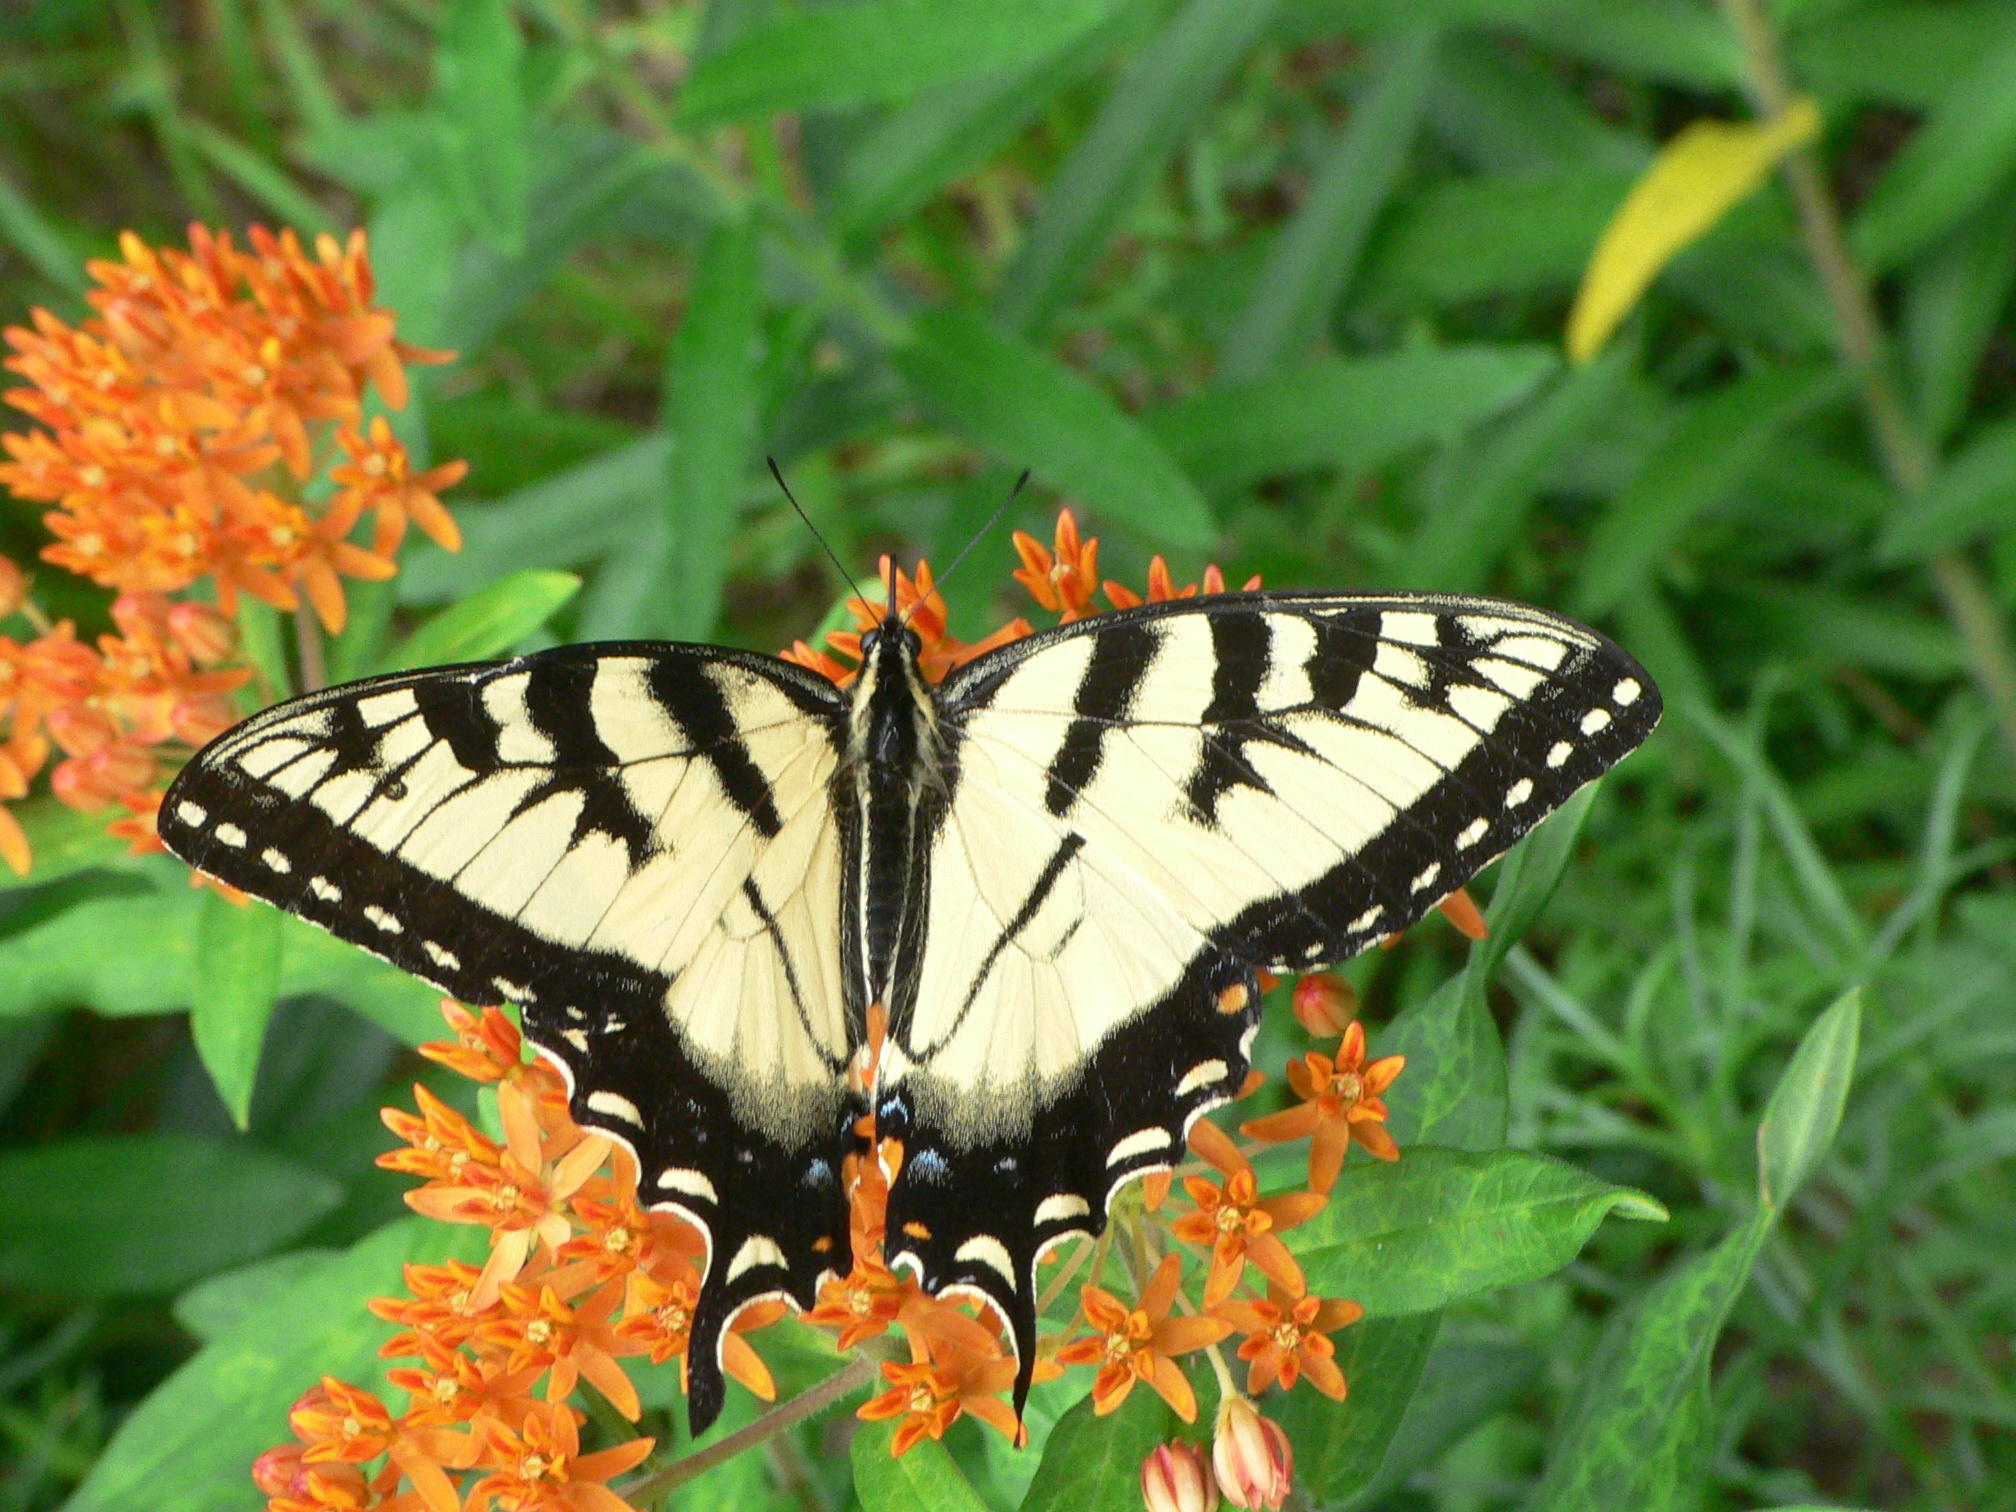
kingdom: Animalia
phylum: Arthropoda
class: Insecta
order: Lepidoptera
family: Papilionidae
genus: Papilio
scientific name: Papilio glaucus
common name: Tiger swallowtail
